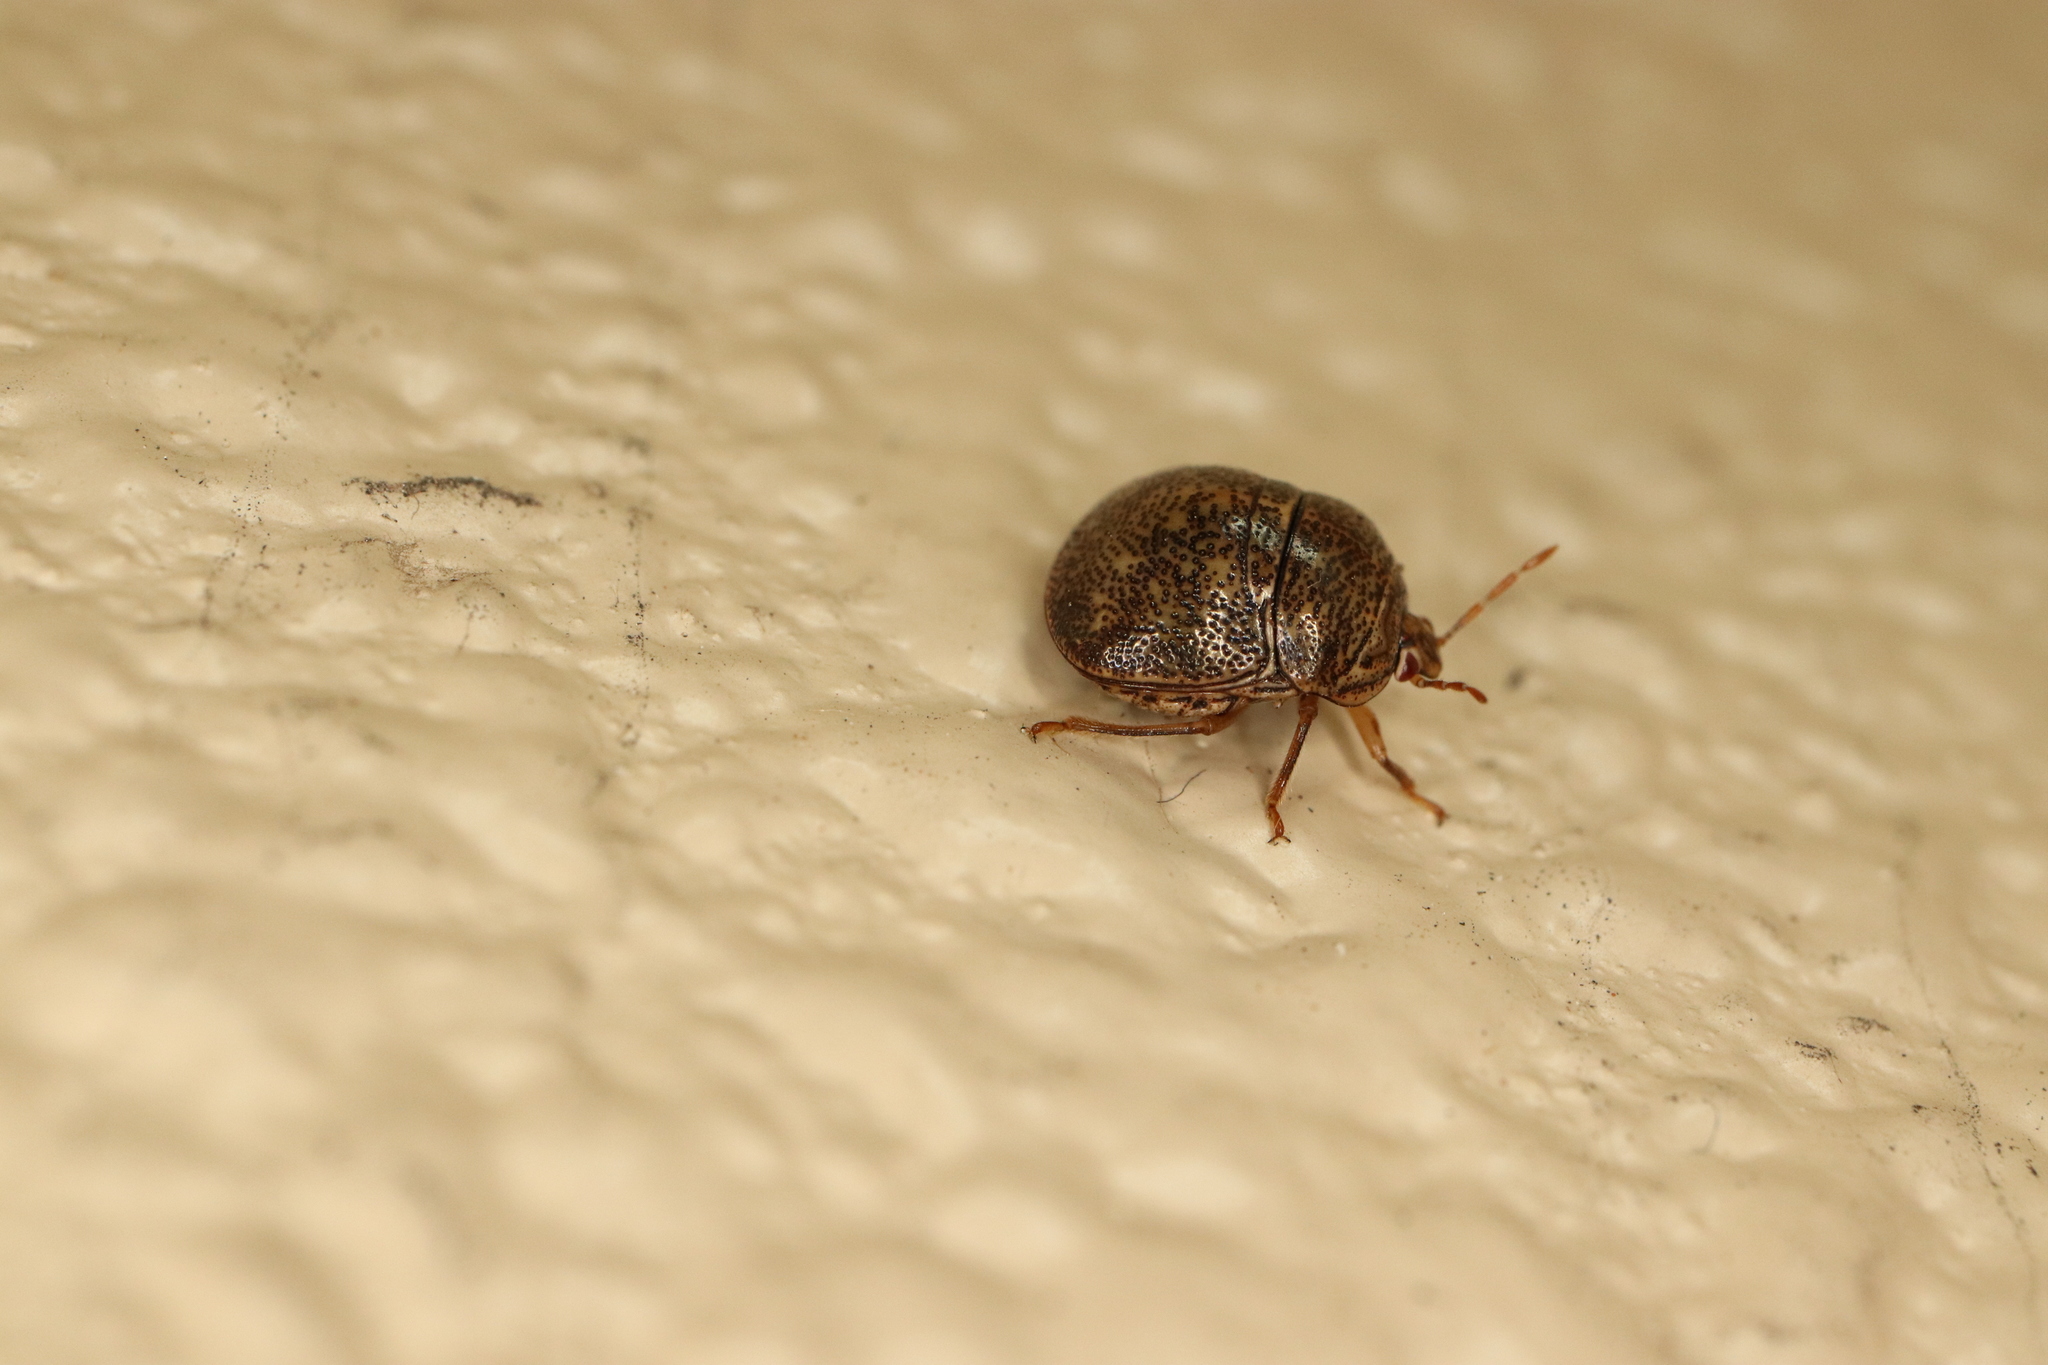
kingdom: Animalia
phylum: Arthropoda
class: Insecta
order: Hemiptera
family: Plataspidae
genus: Megacopta
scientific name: Megacopta punctatissima
